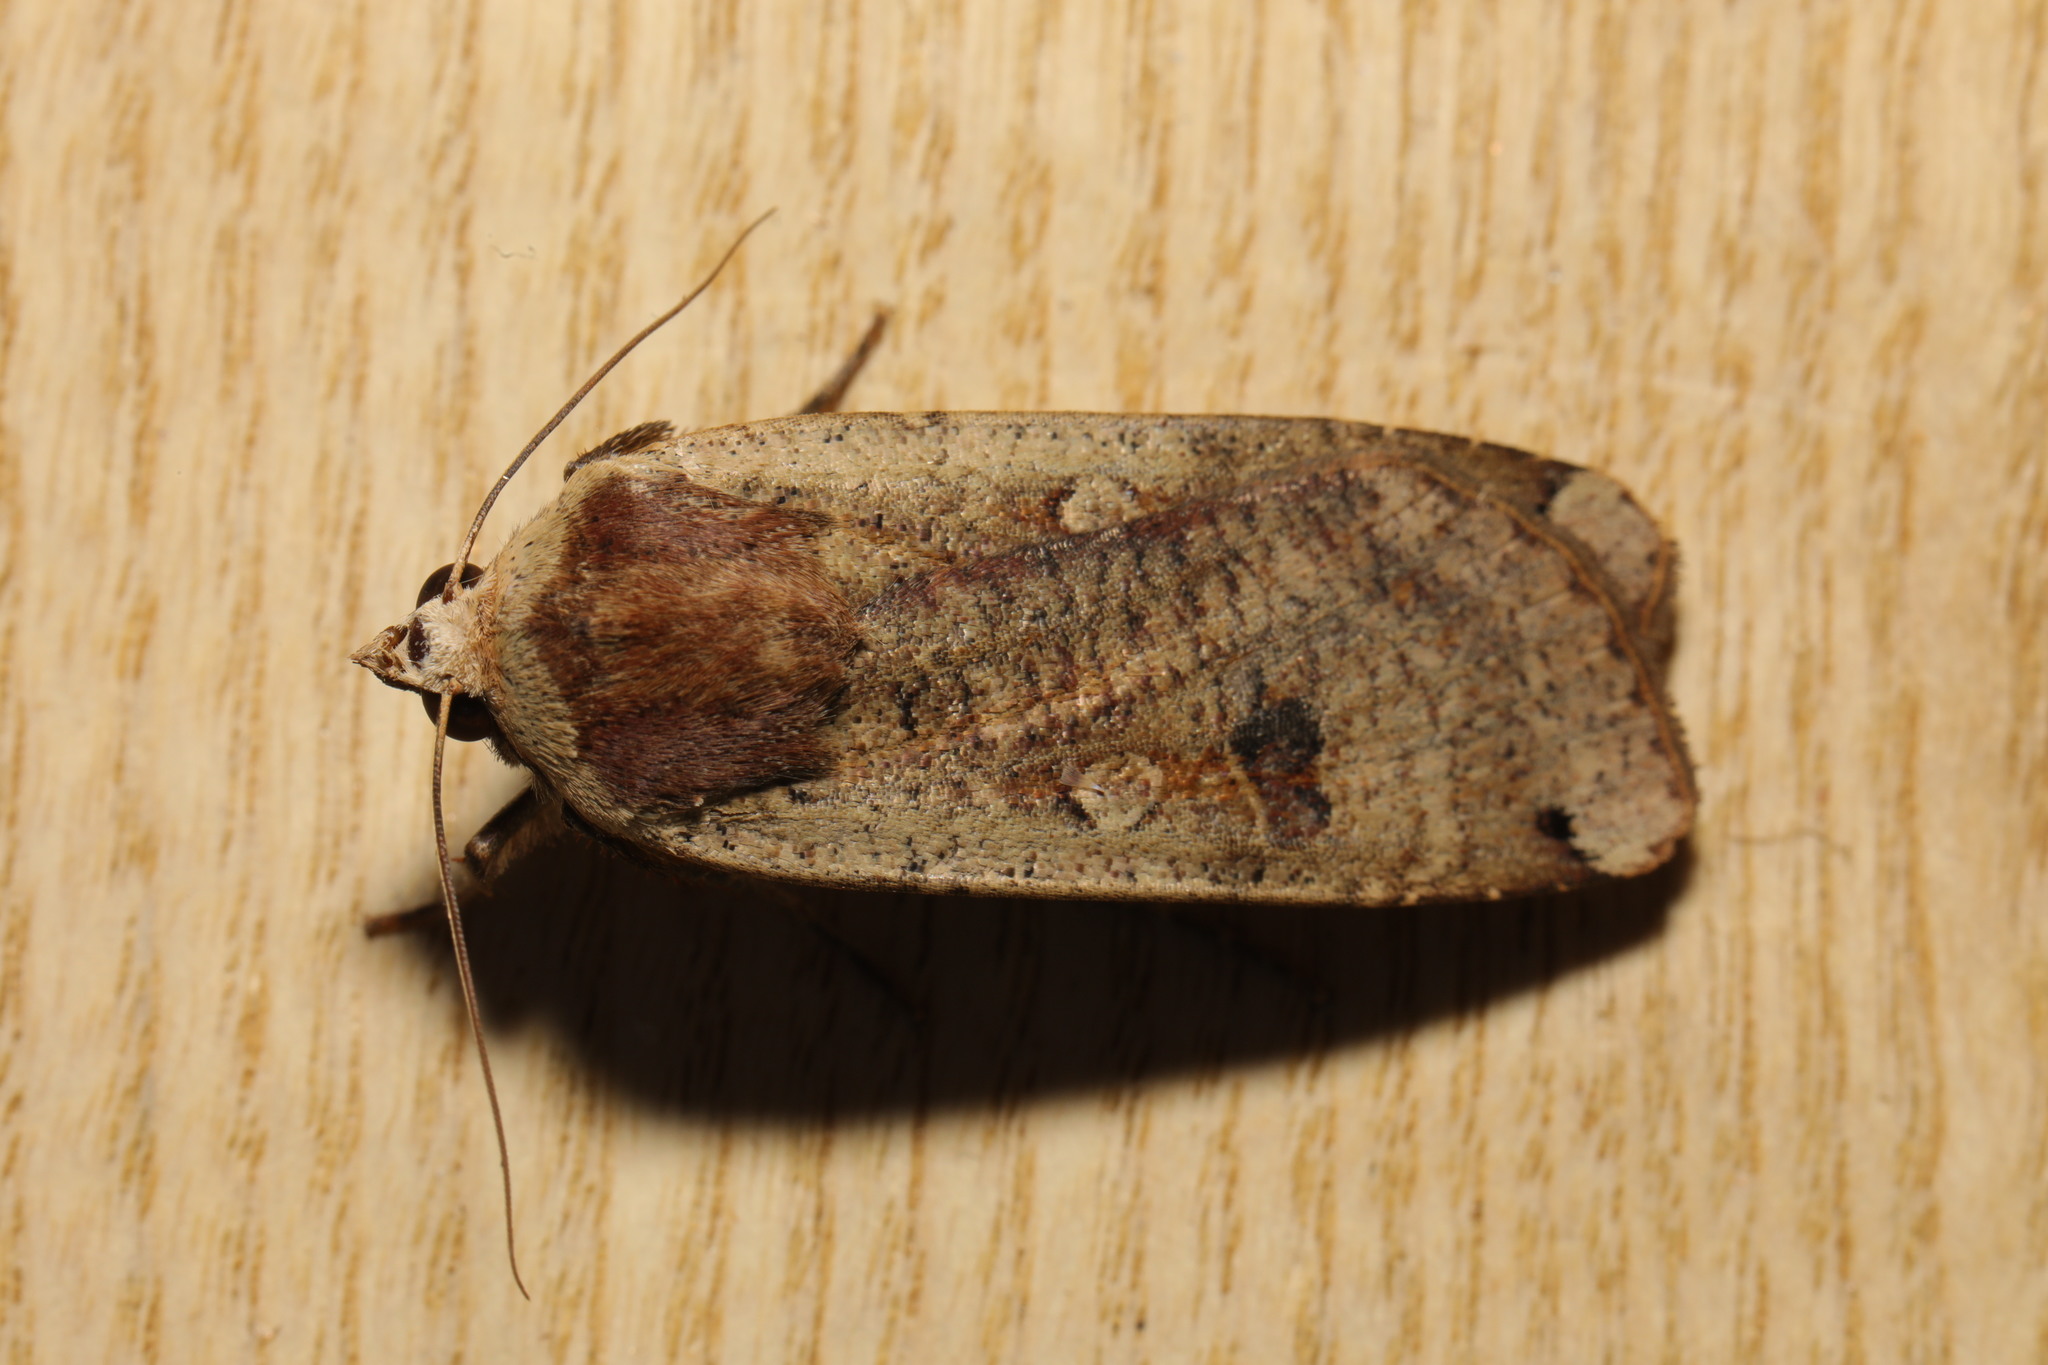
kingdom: Animalia
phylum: Arthropoda
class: Insecta
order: Lepidoptera
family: Noctuidae
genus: Noctua
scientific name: Noctua pronuba
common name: Large yellow underwing
